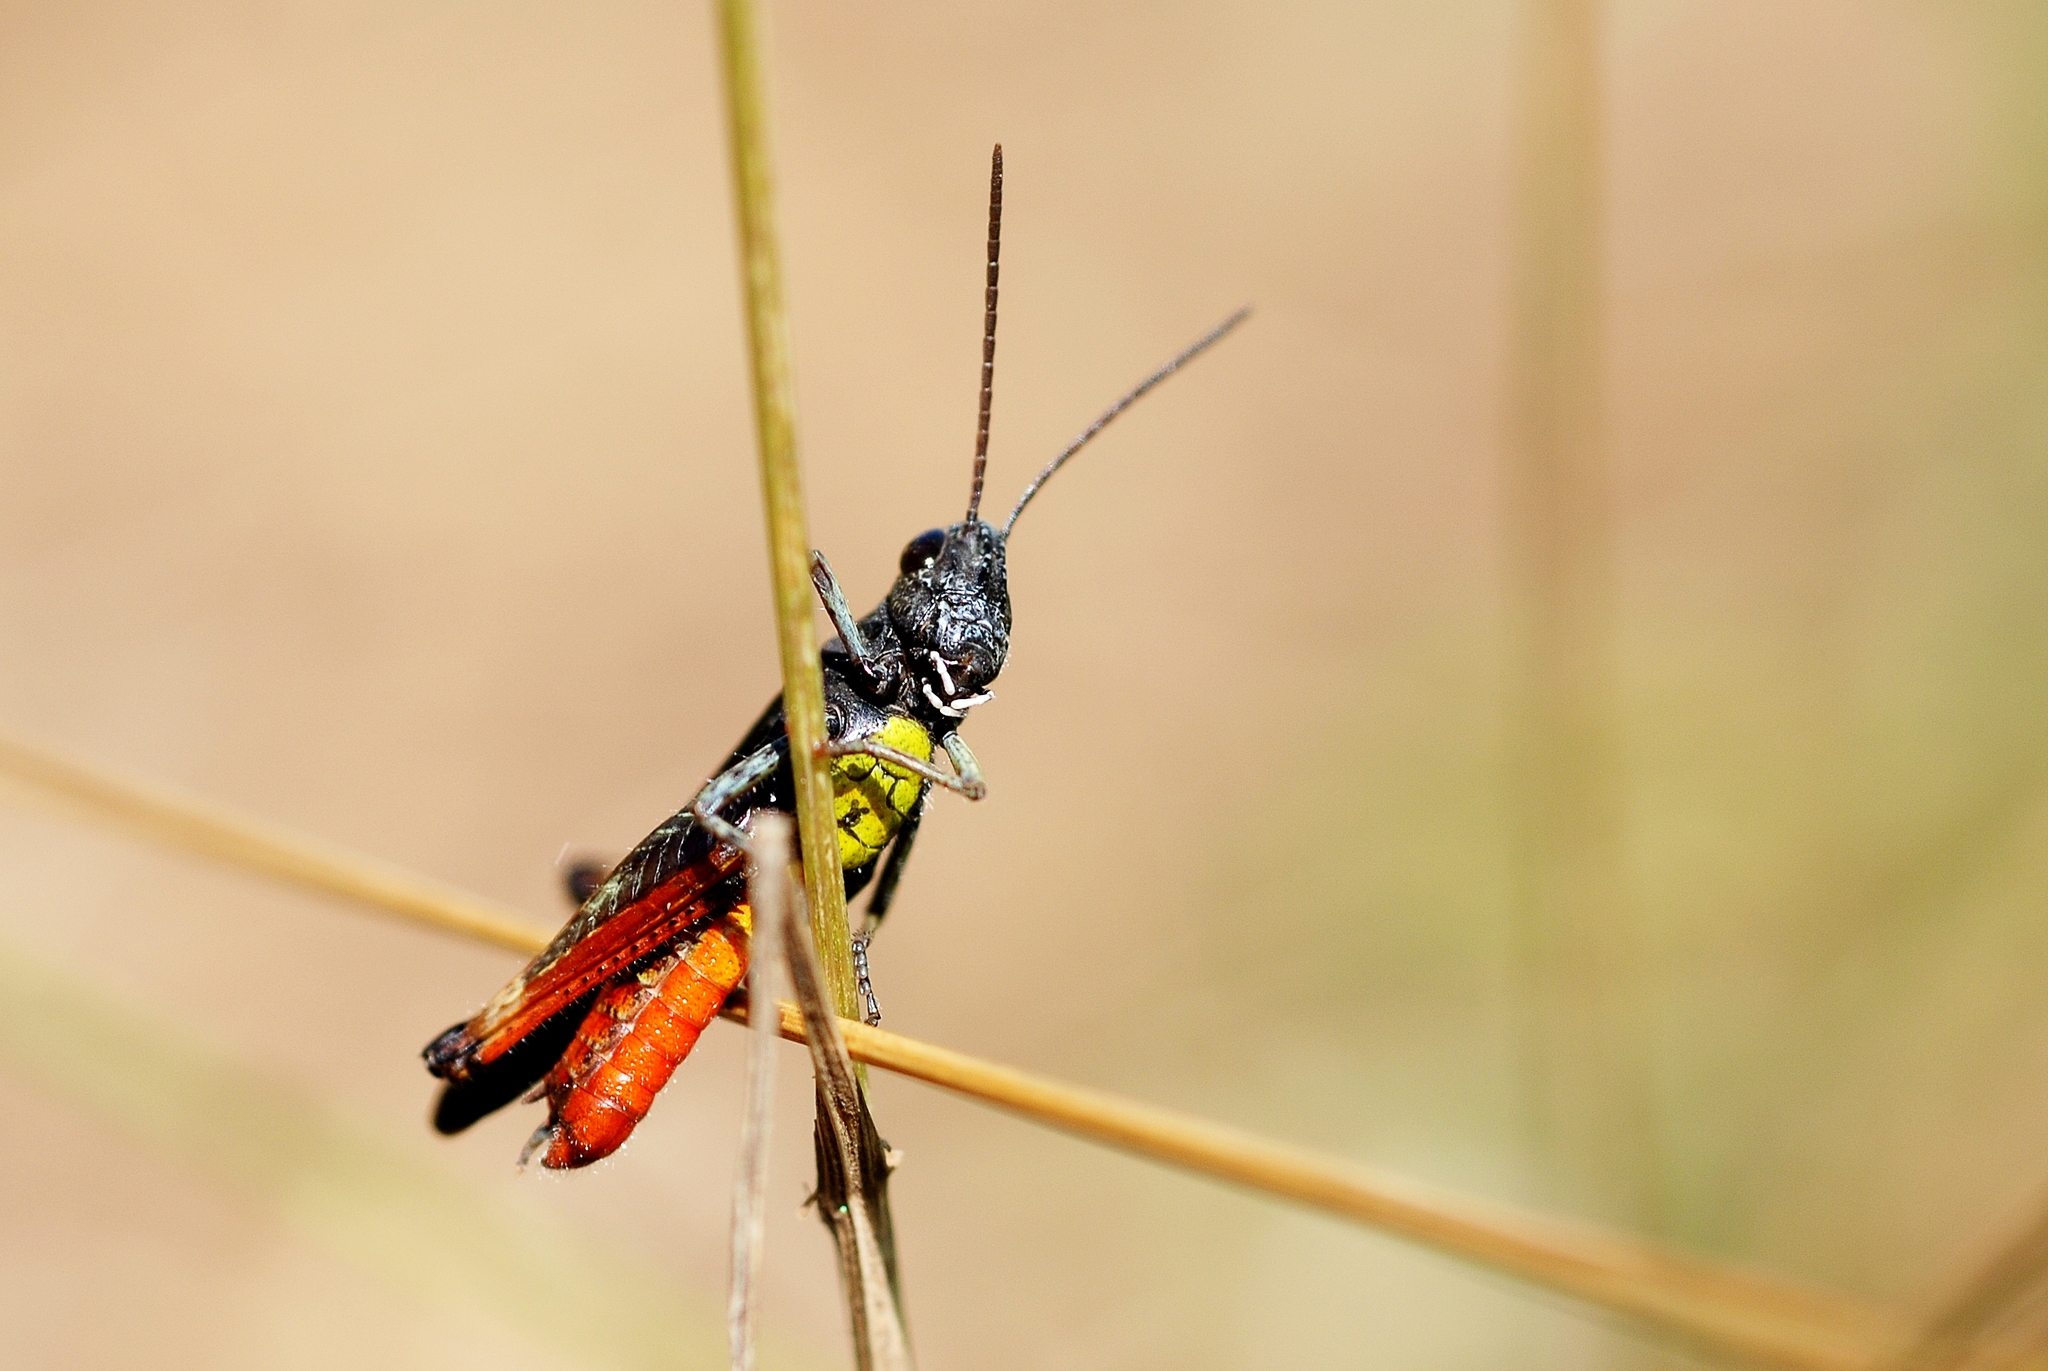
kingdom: Animalia
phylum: Arthropoda
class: Insecta
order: Orthoptera
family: Acrididae
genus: Omocestus
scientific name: Omocestus rufipes
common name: Woodland grasshopper
